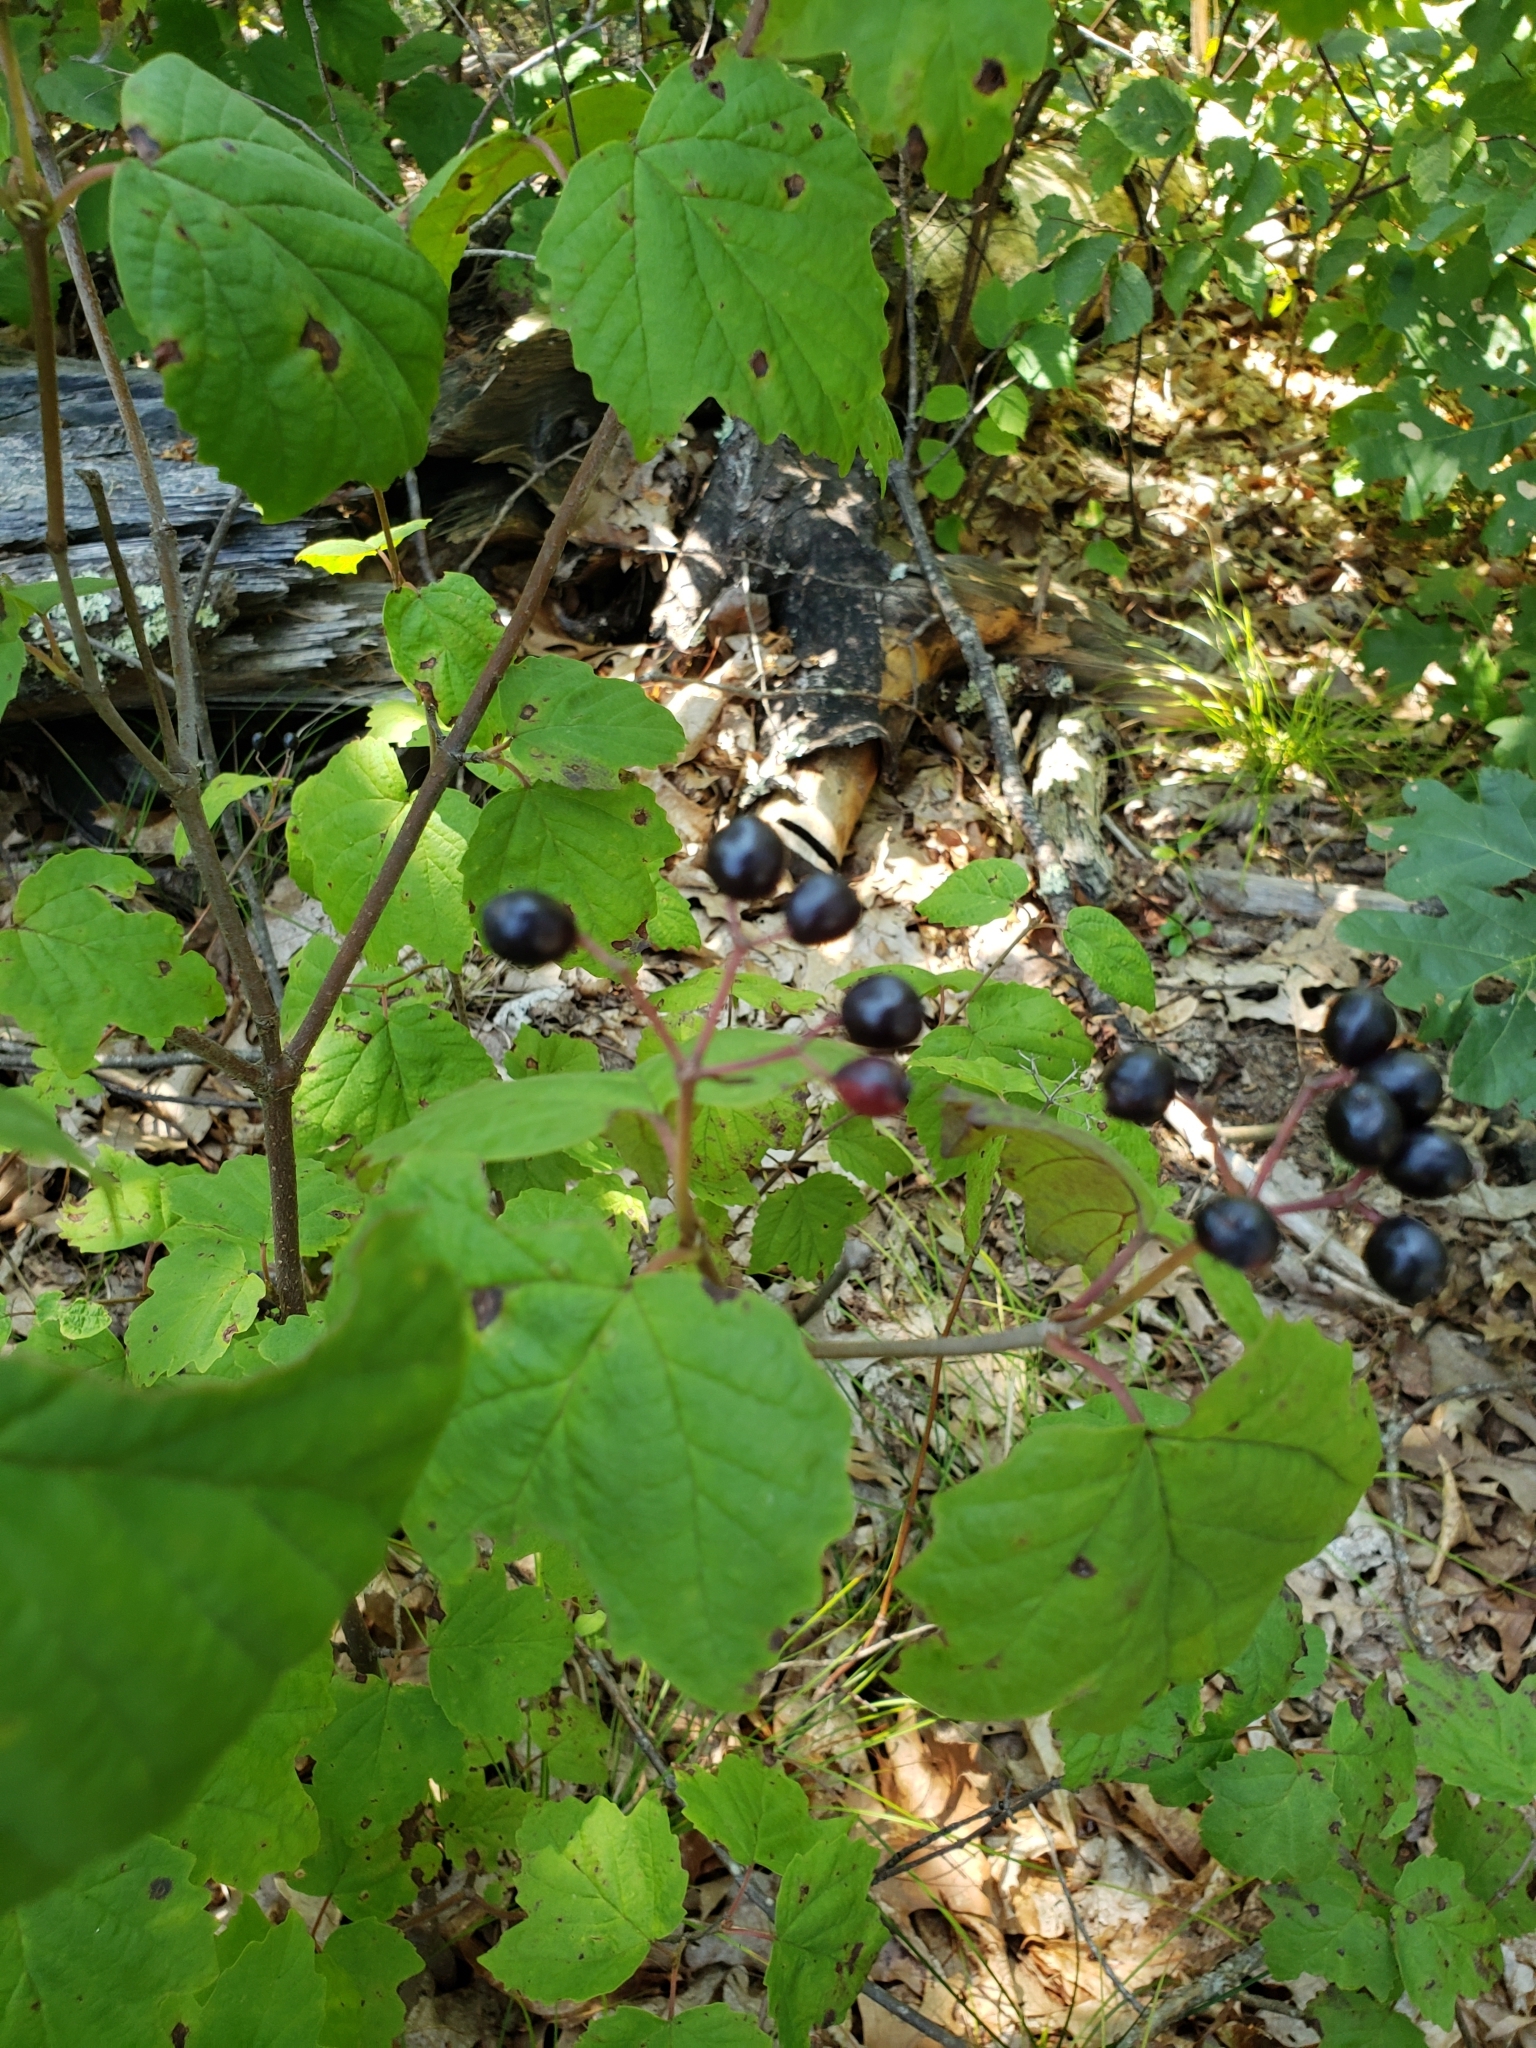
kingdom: Plantae
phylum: Tracheophyta
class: Magnoliopsida
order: Dipsacales
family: Viburnaceae
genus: Viburnum
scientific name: Viburnum acerifolium
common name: Dockmackie
